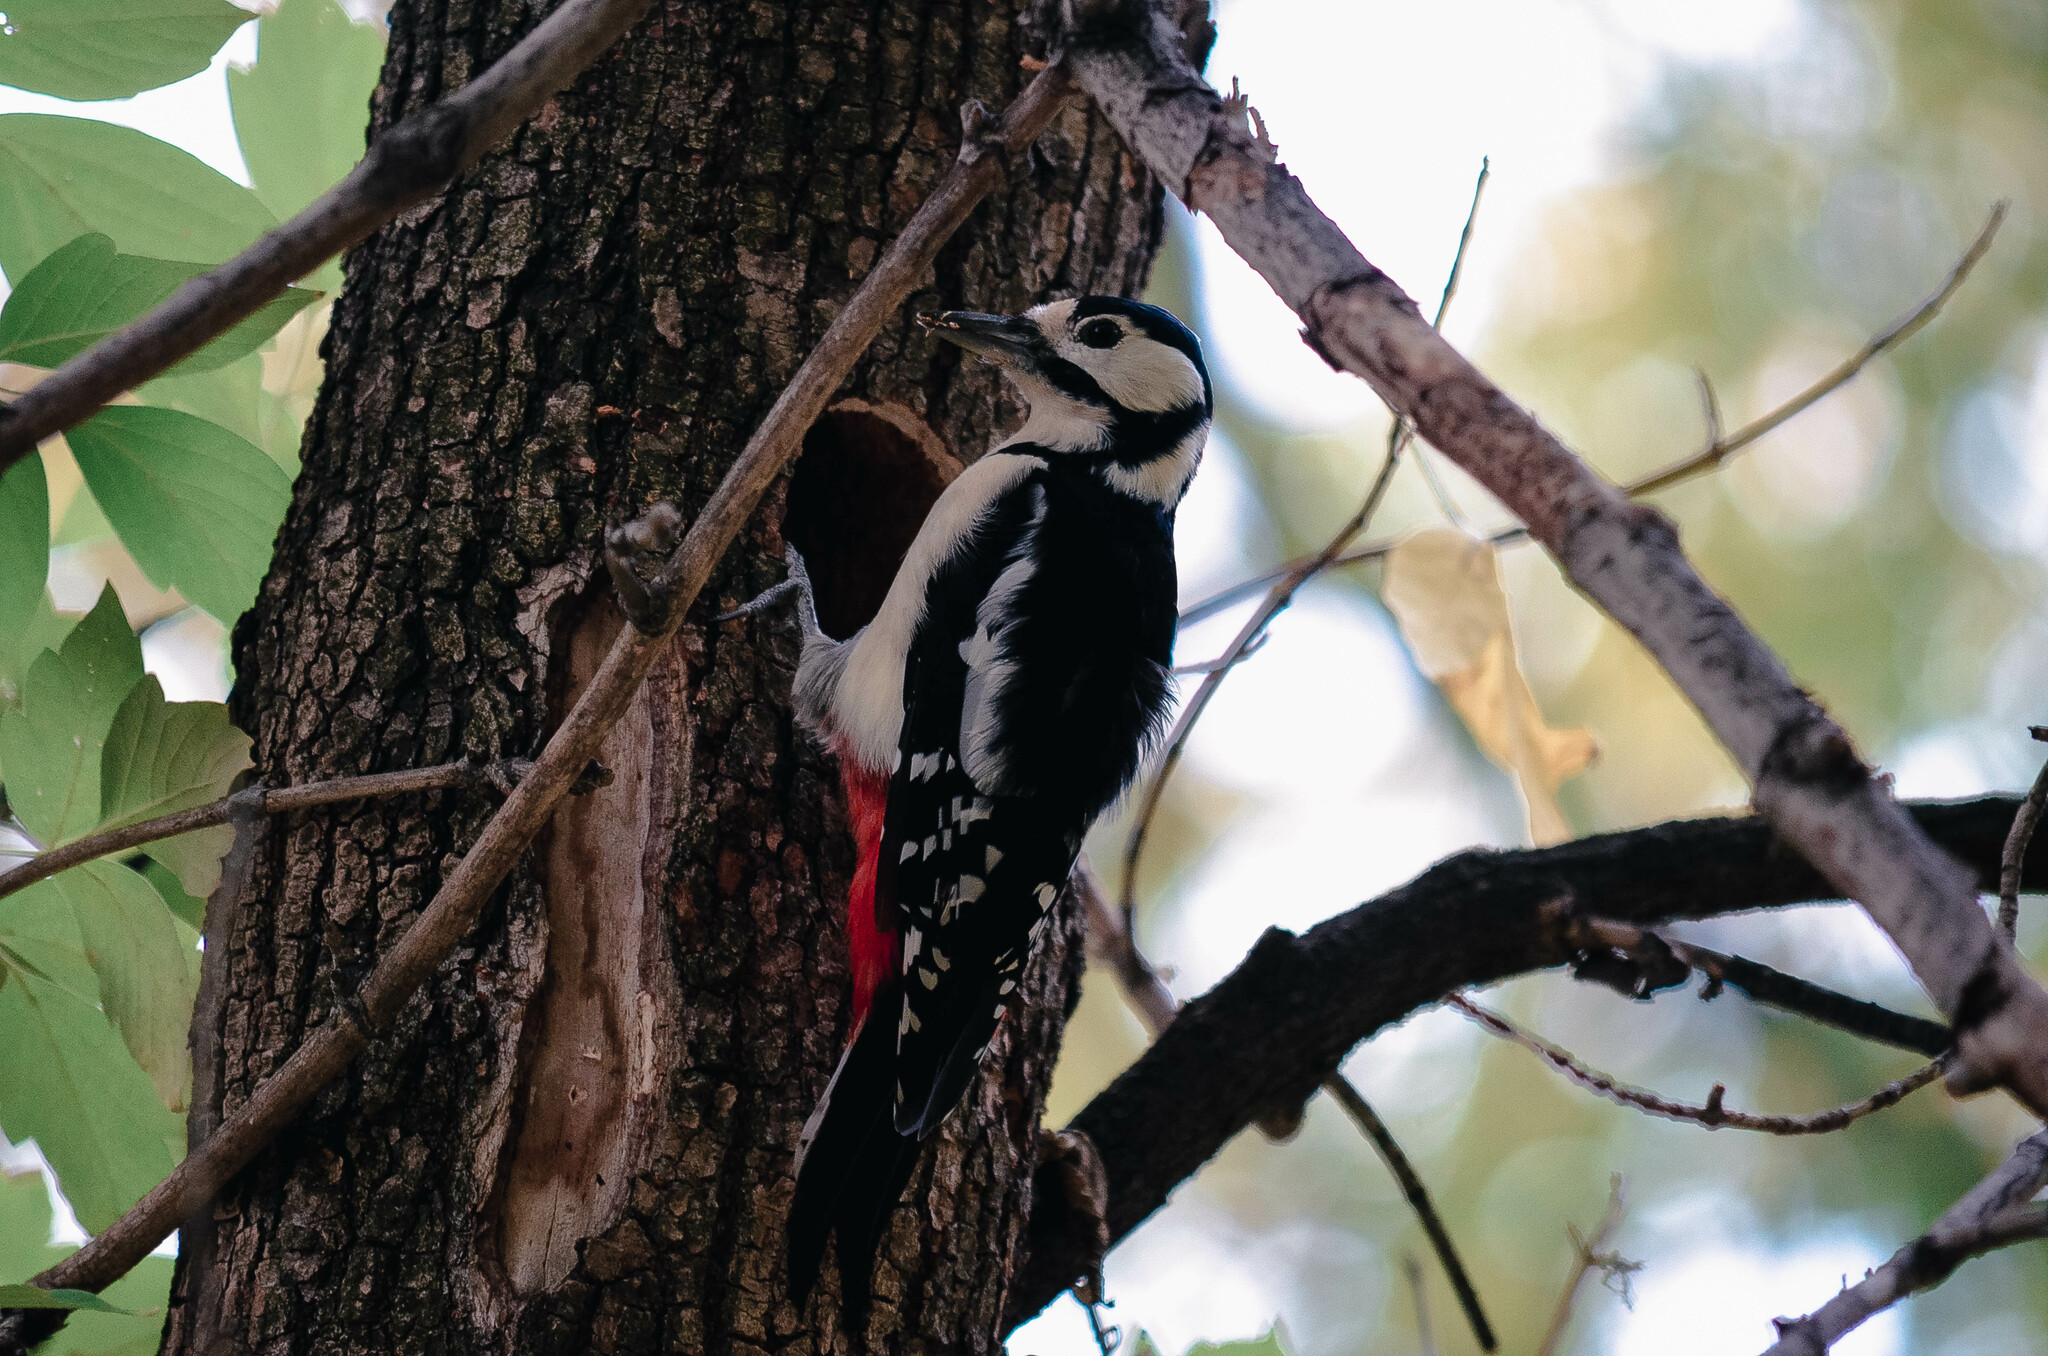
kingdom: Animalia
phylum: Chordata
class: Aves
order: Piciformes
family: Picidae
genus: Dendrocopos
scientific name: Dendrocopos major
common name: Great spotted woodpecker
